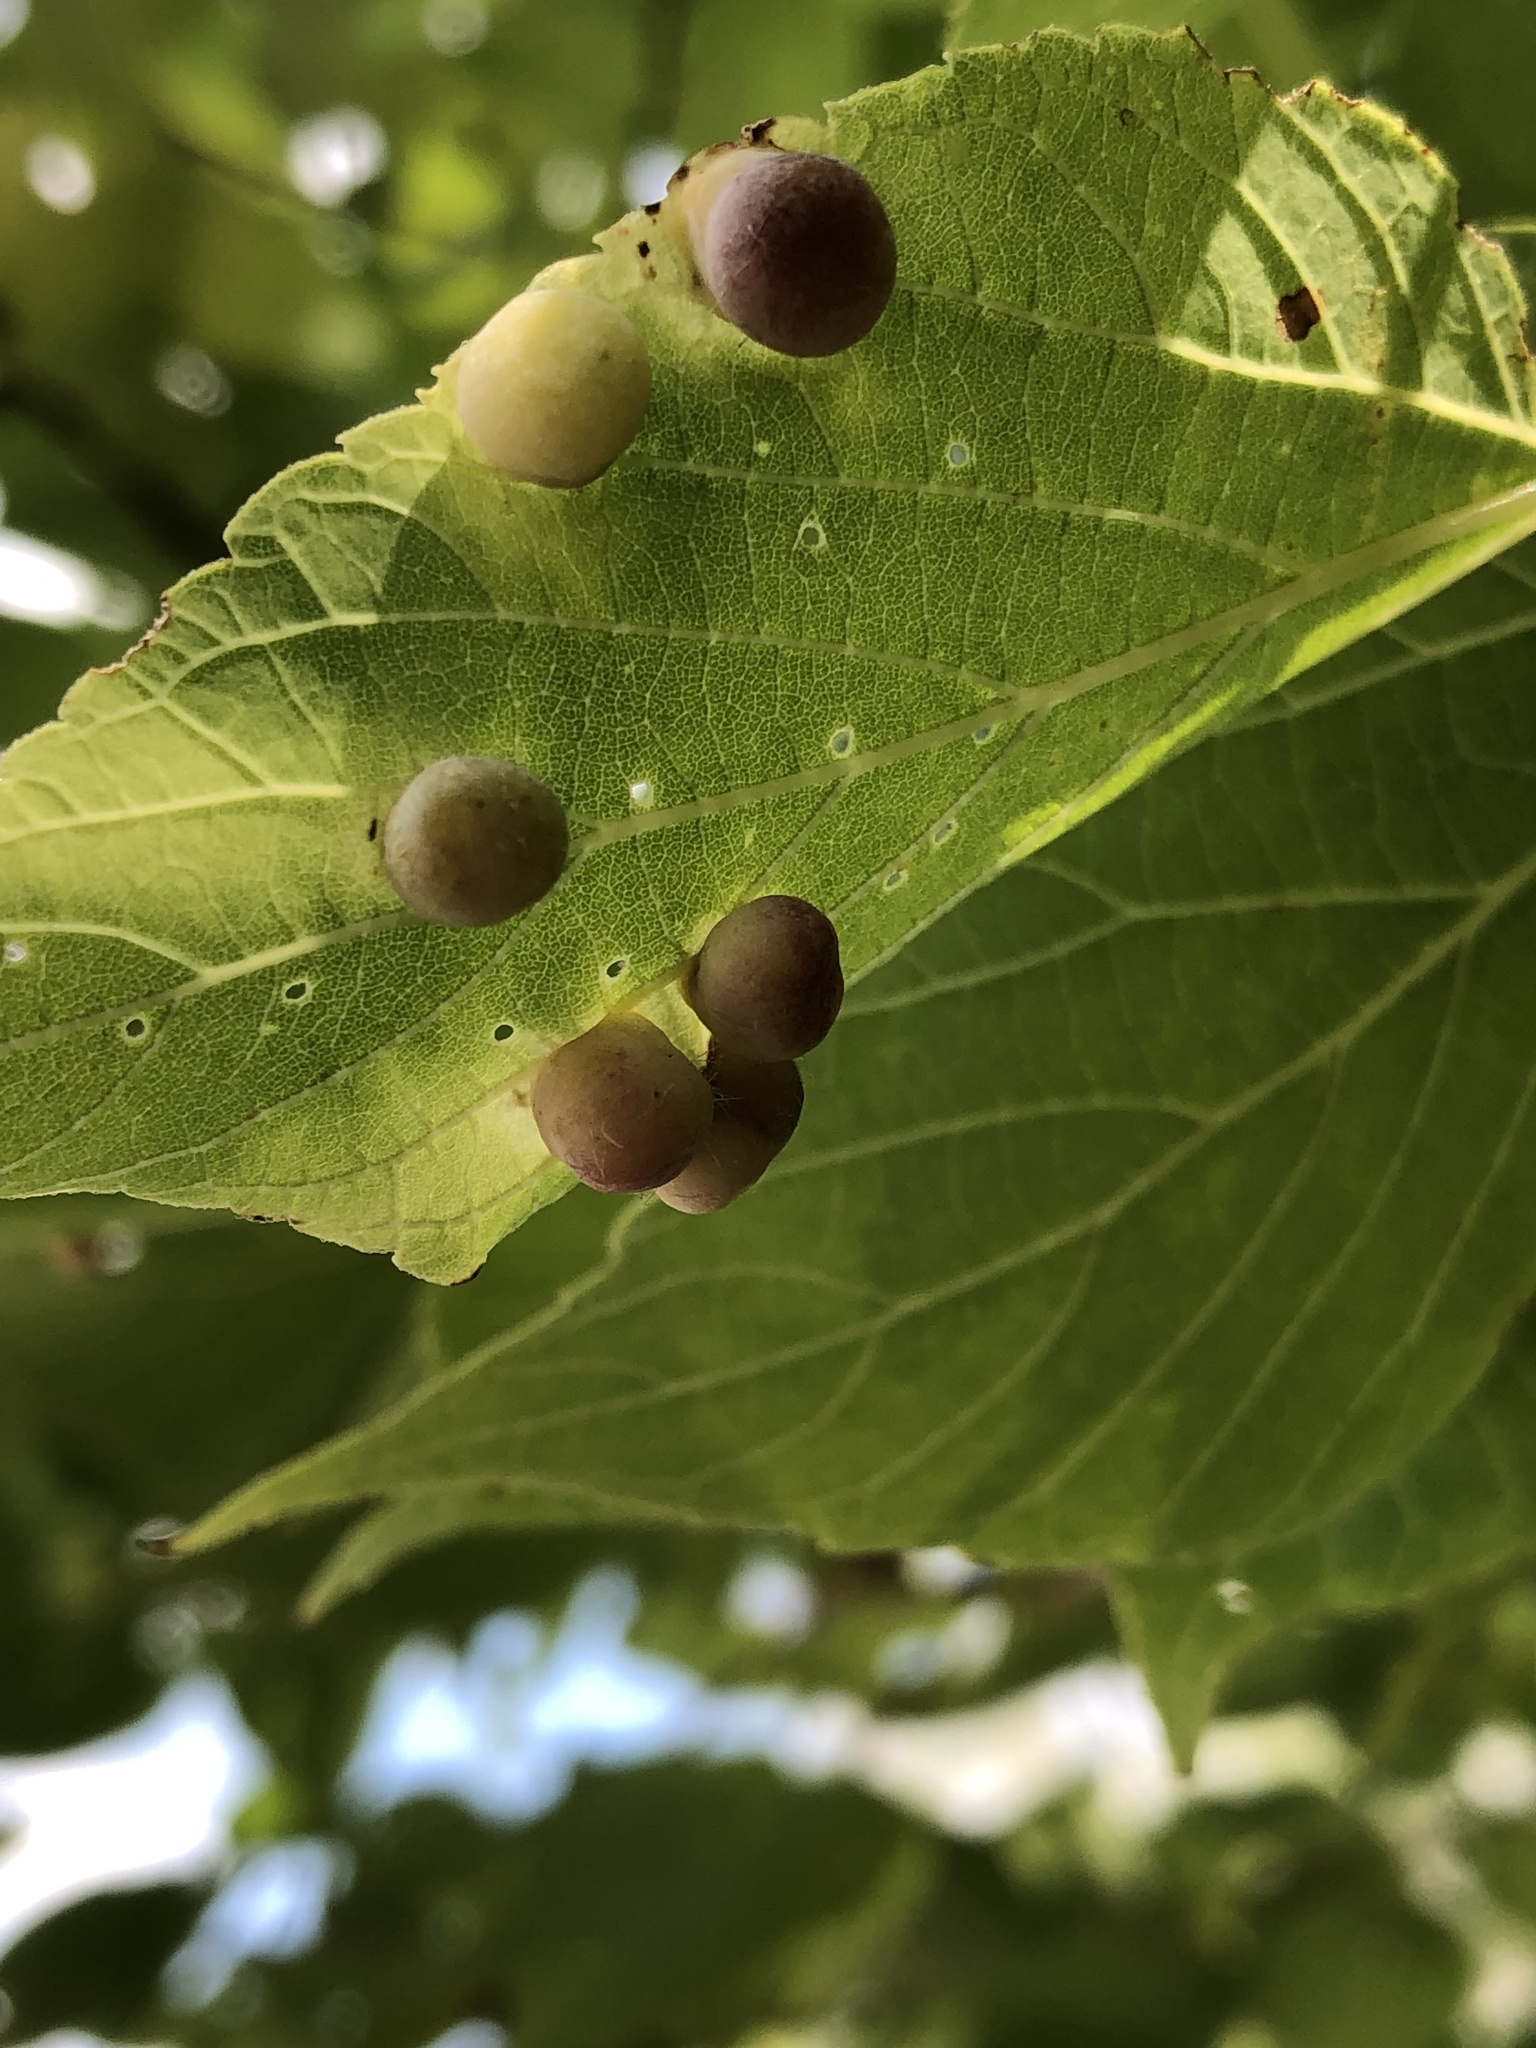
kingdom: Animalia
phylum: Arthropoda
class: Insecta
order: Hemiptera
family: Aphalaridae
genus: Pachypsylla
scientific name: Pachypsylla celtidismamma
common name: Hackberry nipplegall psyllid
